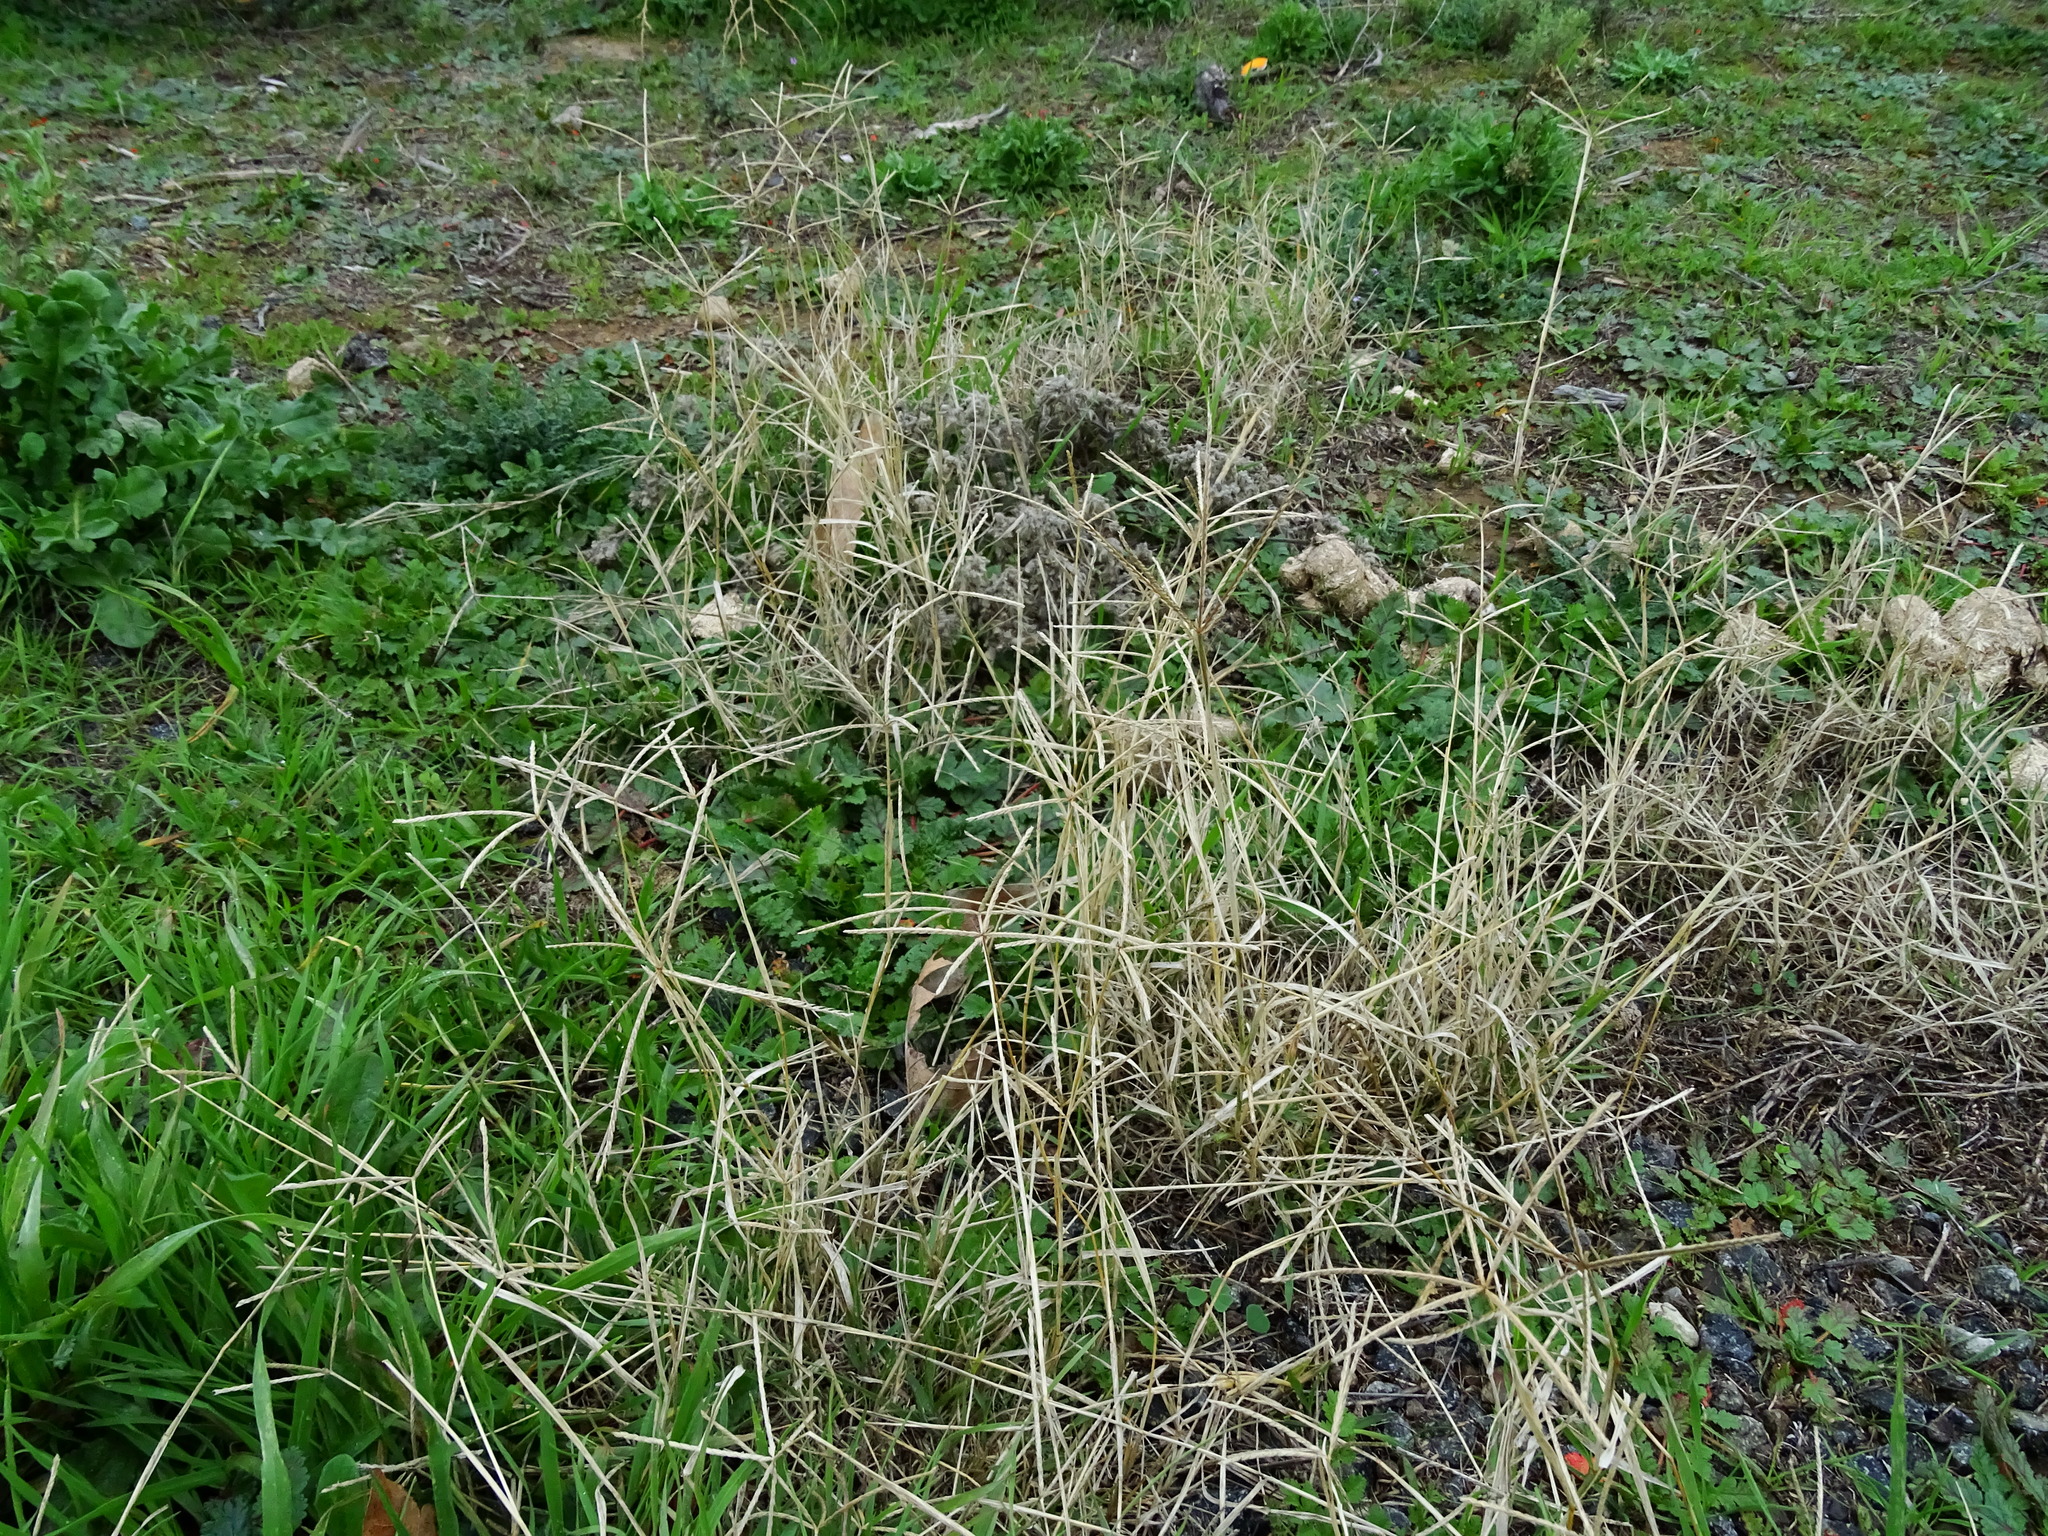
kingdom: Plantae
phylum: Tracheophyta
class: Liliopsida
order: Poales
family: Poaceae
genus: Cynodon
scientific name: Cynodon dactylon
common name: Bermuda grass
